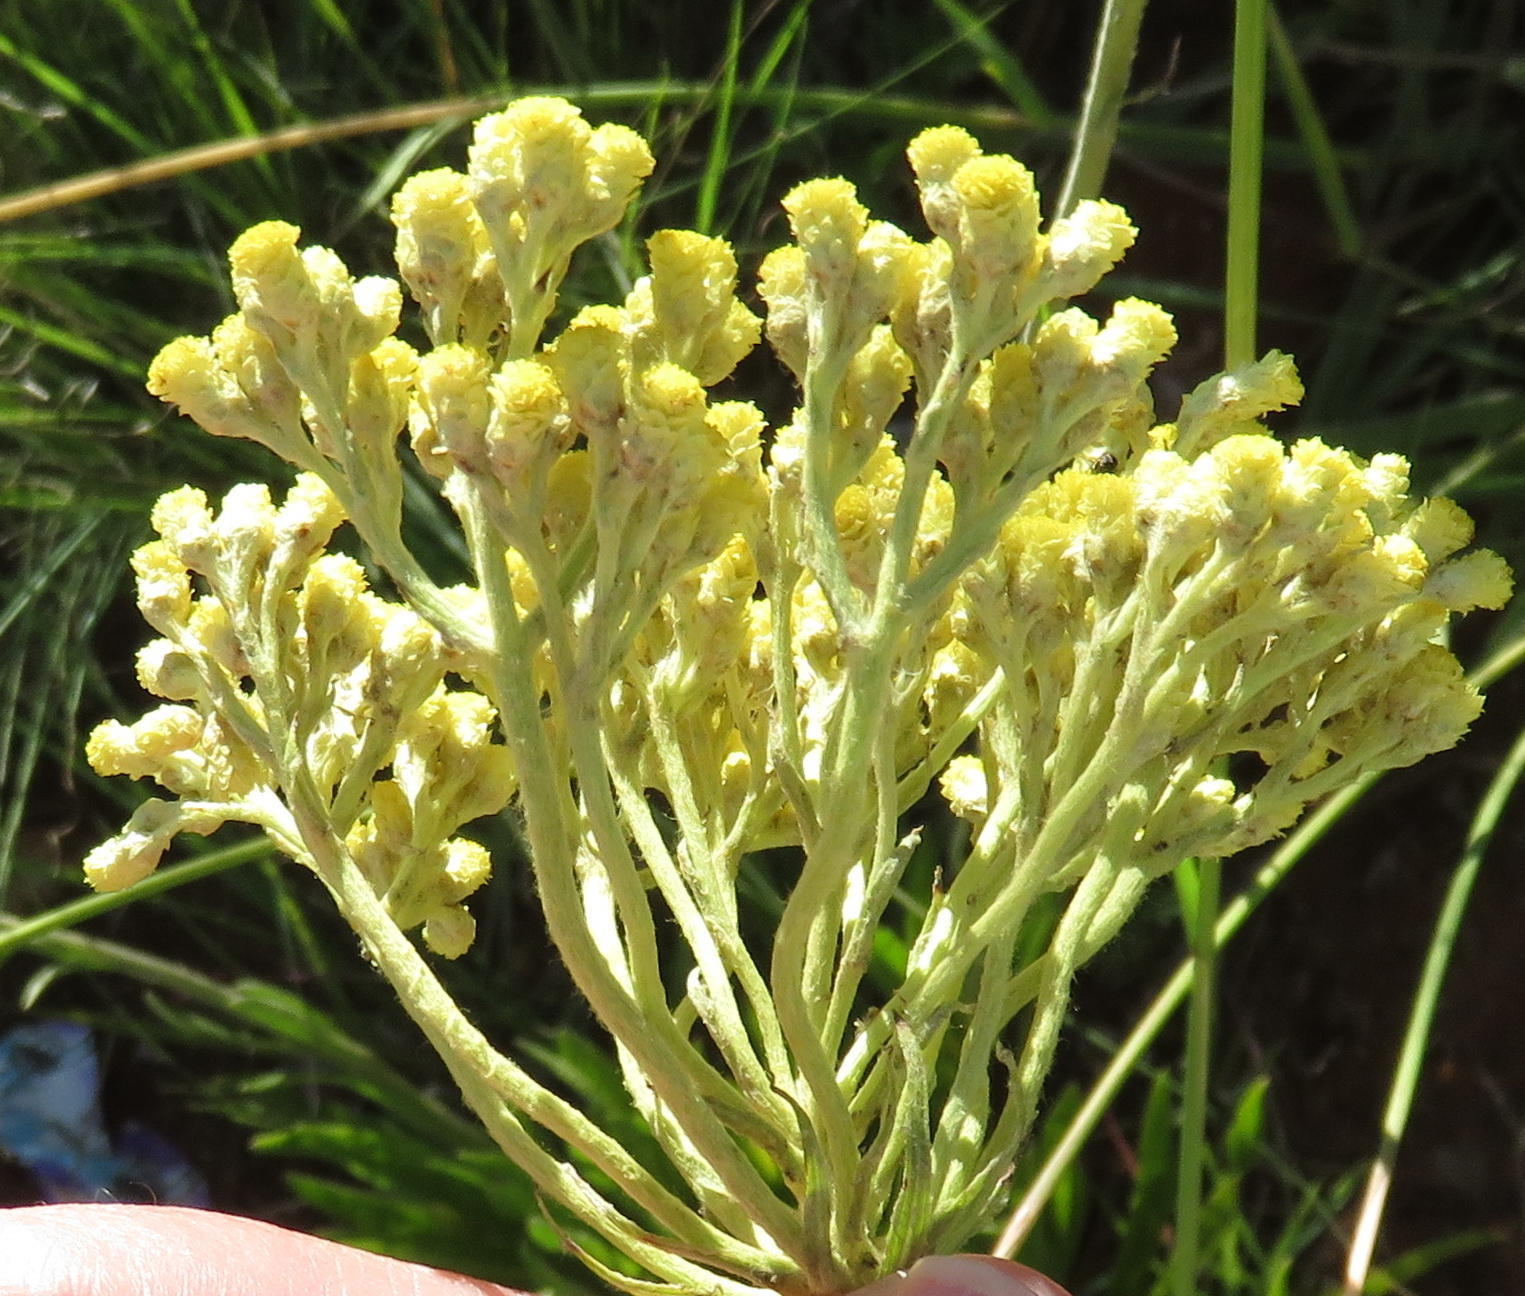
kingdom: Plantae
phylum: Tracheophyta
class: Magnoliopsida
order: Asterales
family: Asteraceae
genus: Helichrysum
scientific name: Helichrysum nudifolium
